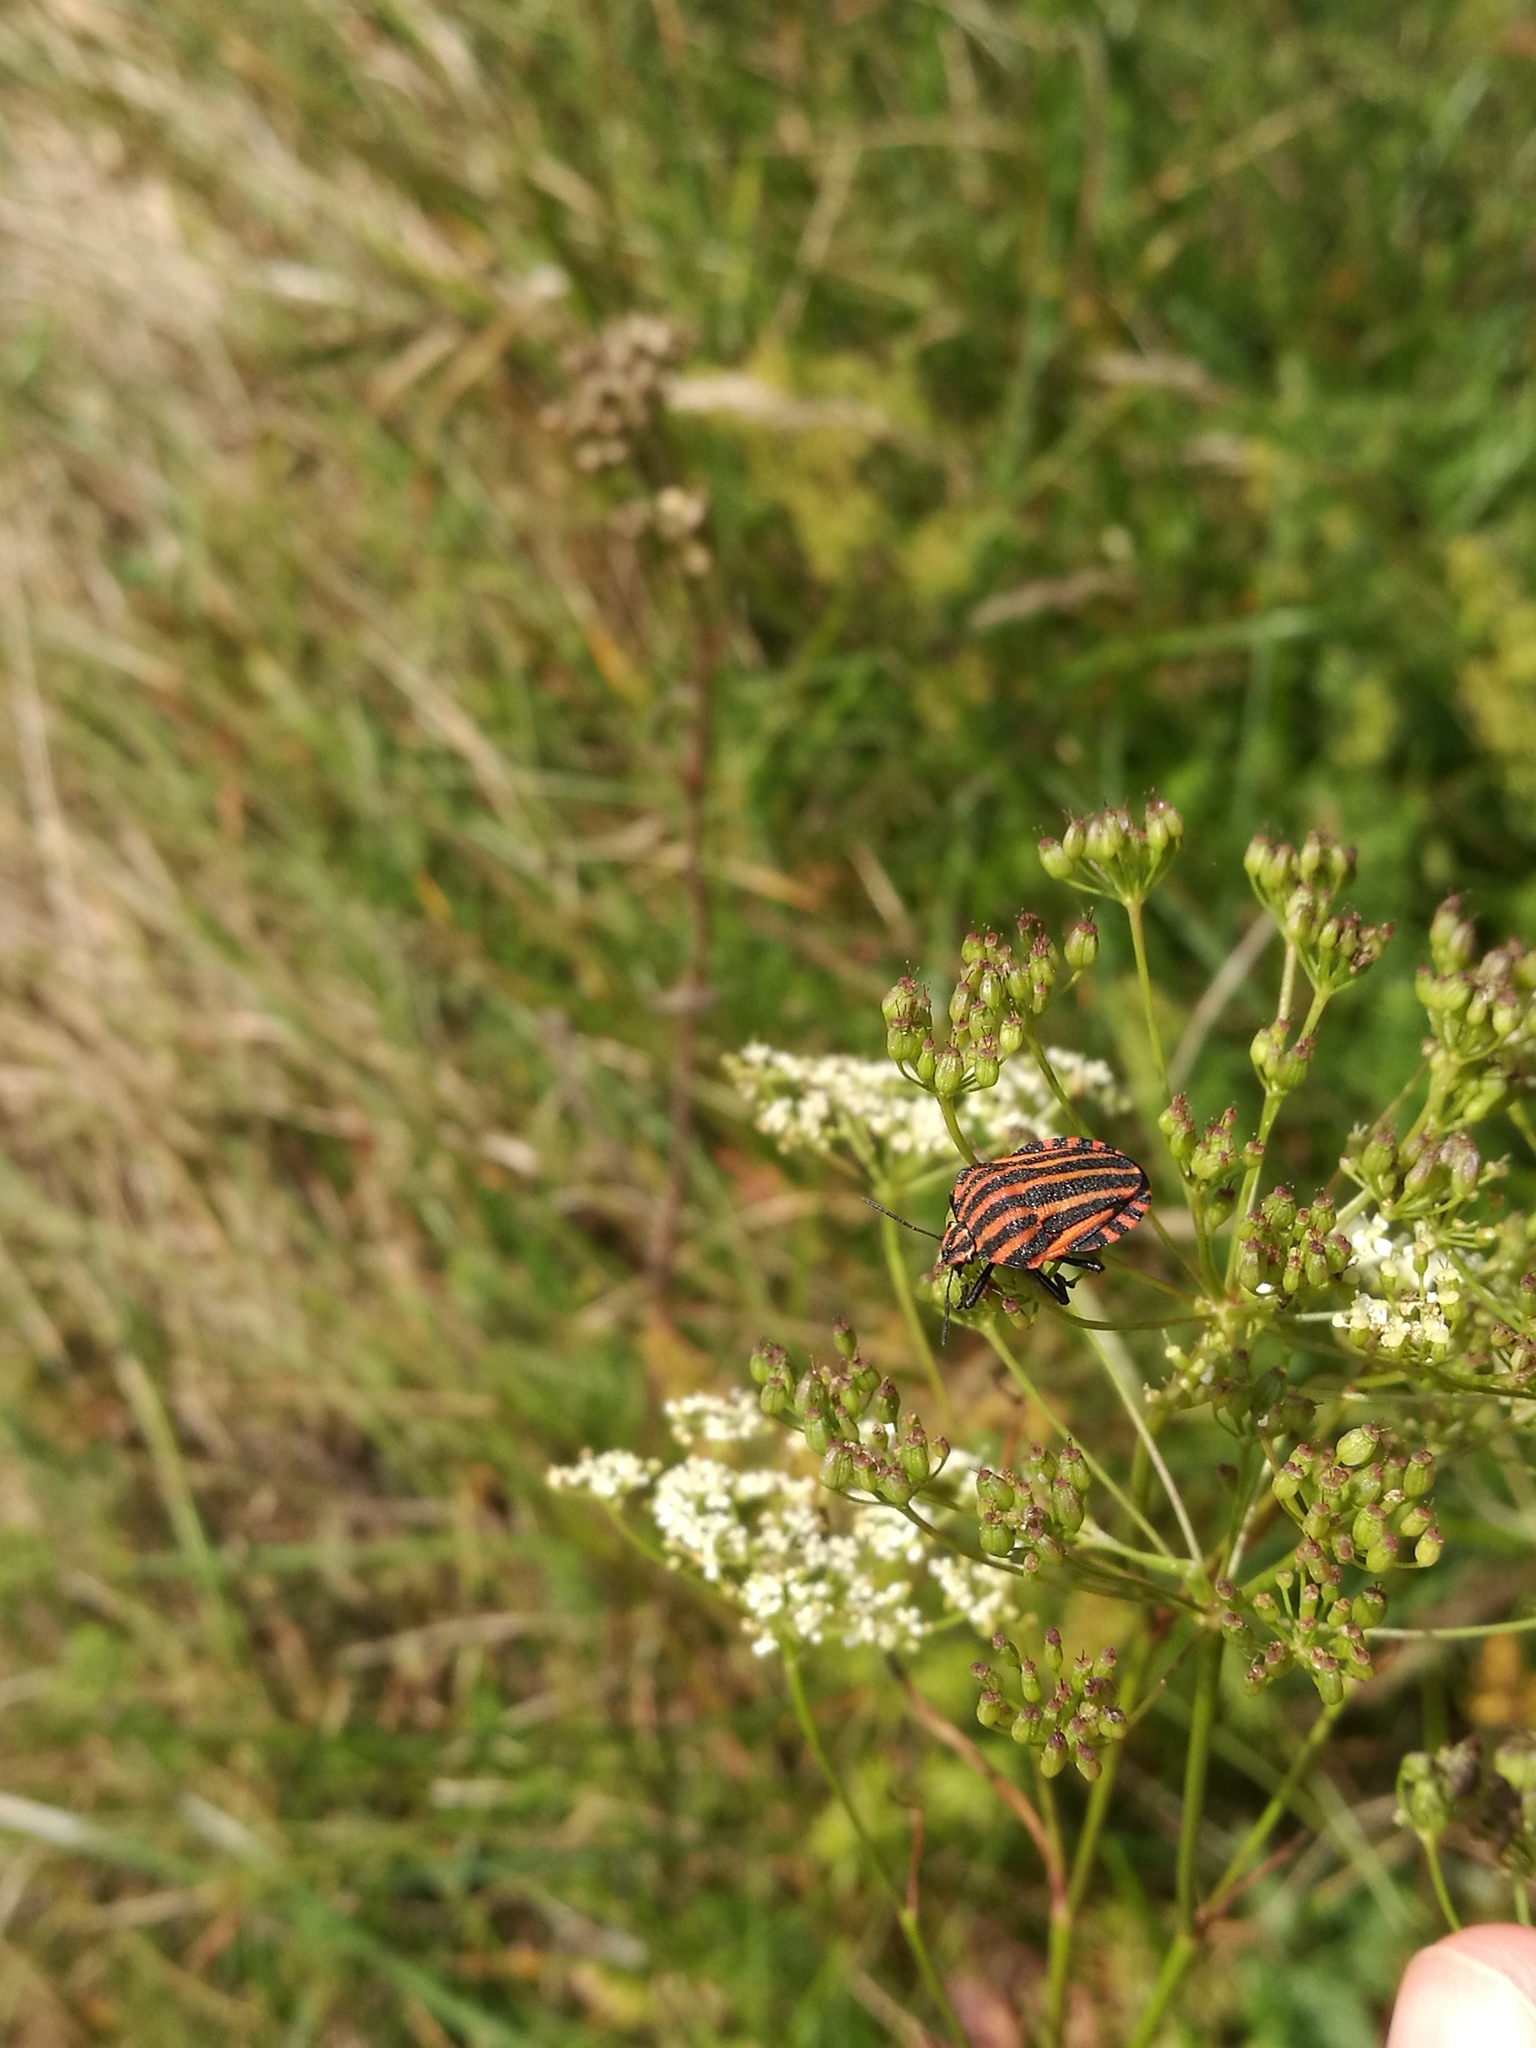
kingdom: Animalia
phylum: Arthropoda
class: Insecta
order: Hemiptera
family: Pentatomidae
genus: Graphosoma
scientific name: Graphosoma italicum
